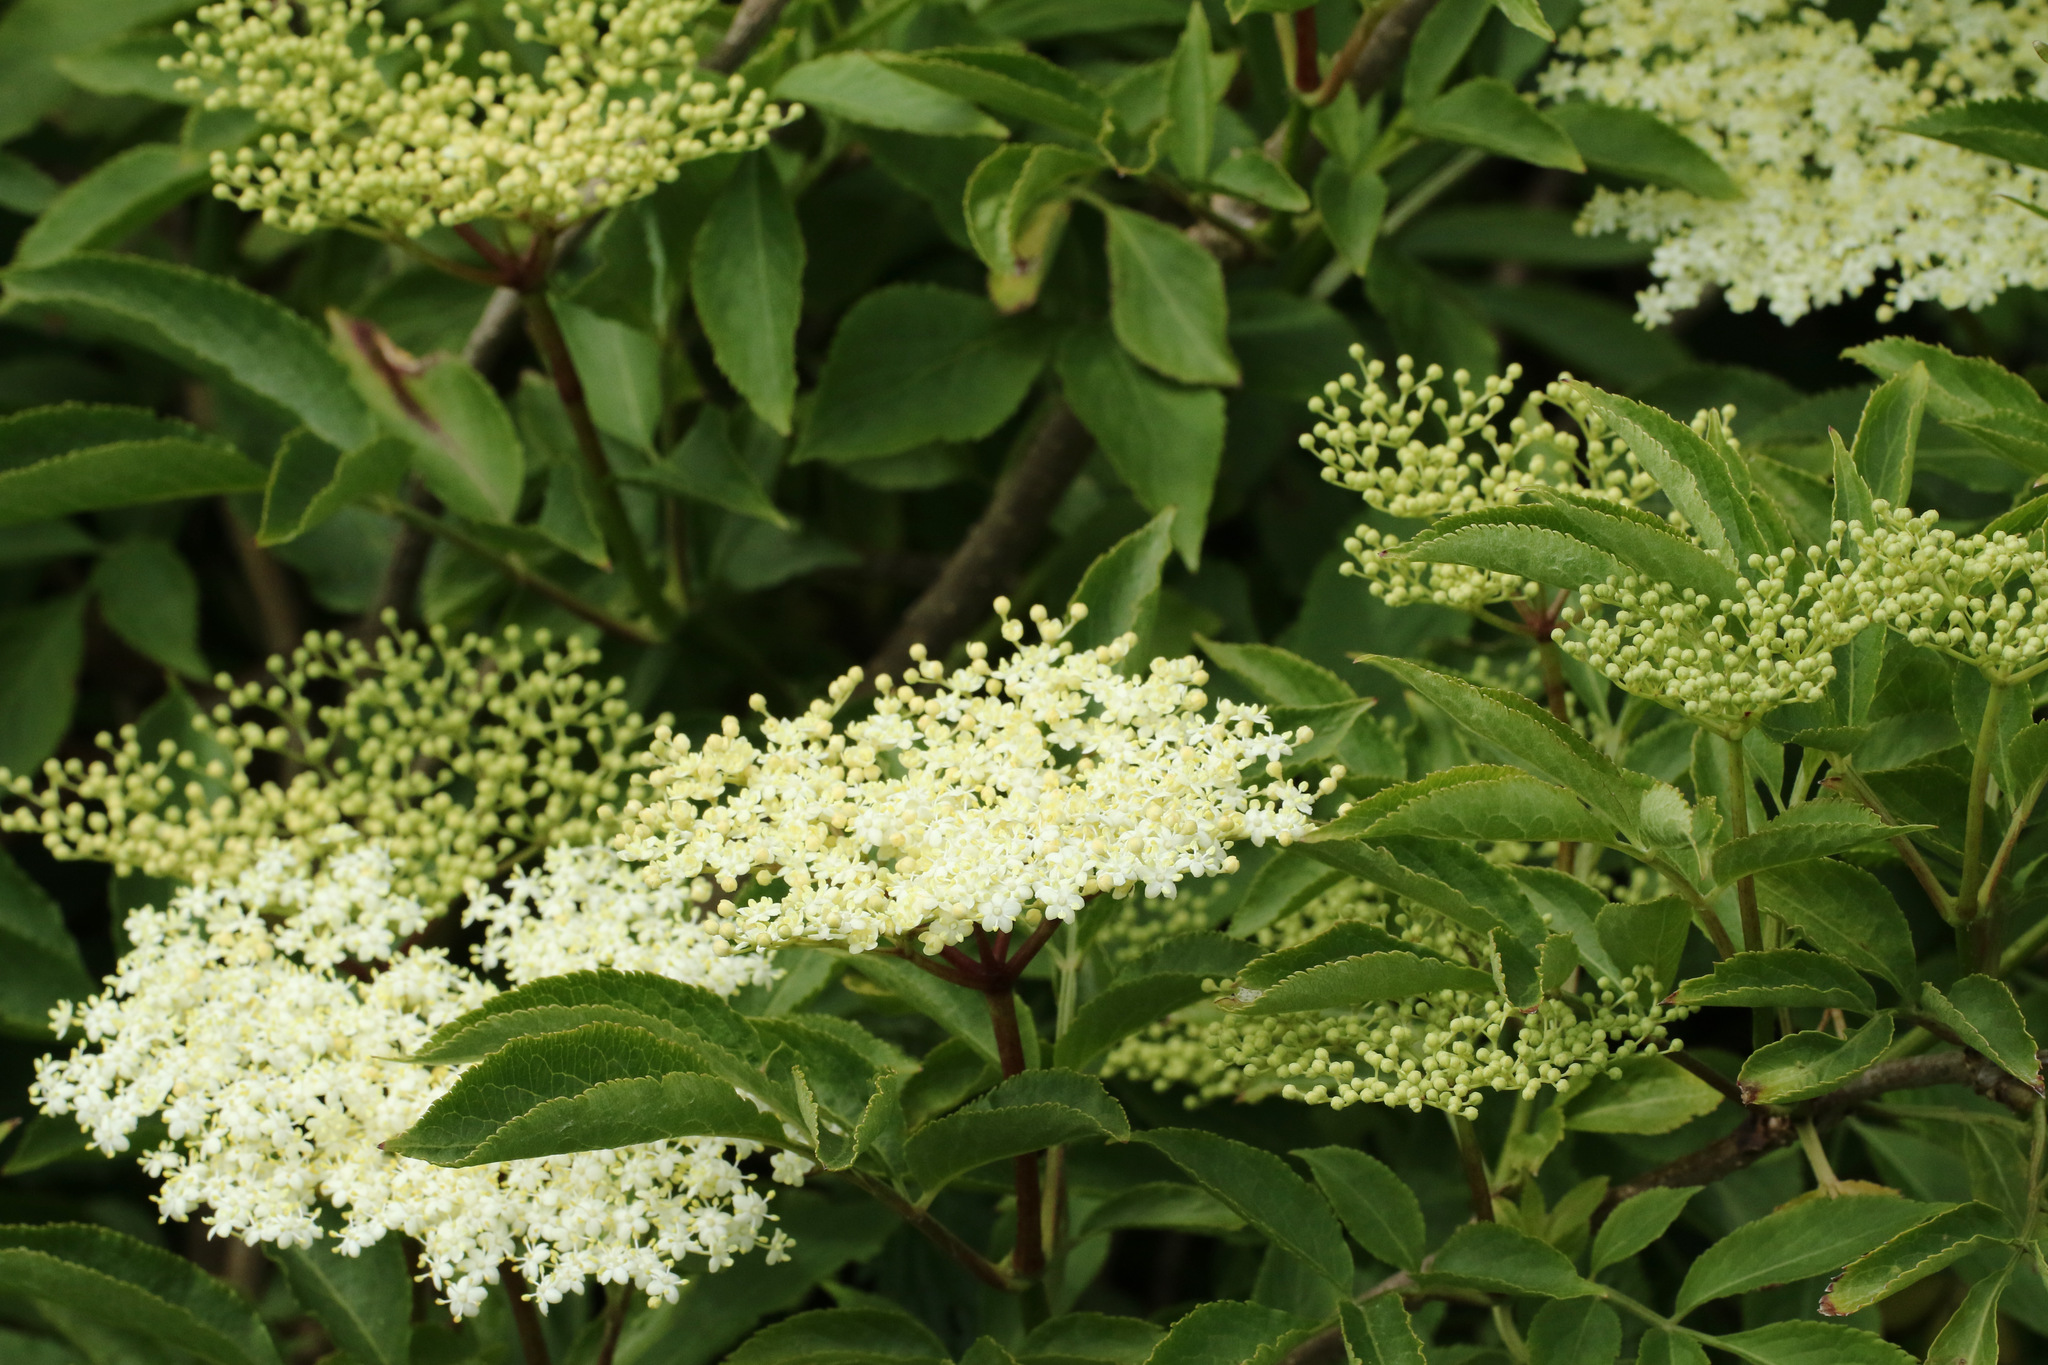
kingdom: Plantae
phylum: Tracheophyta
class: Magnoliopsida
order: Dipsacales
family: Viburnaceae
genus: Sambucus
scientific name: Sambucus nigra
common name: Elder
